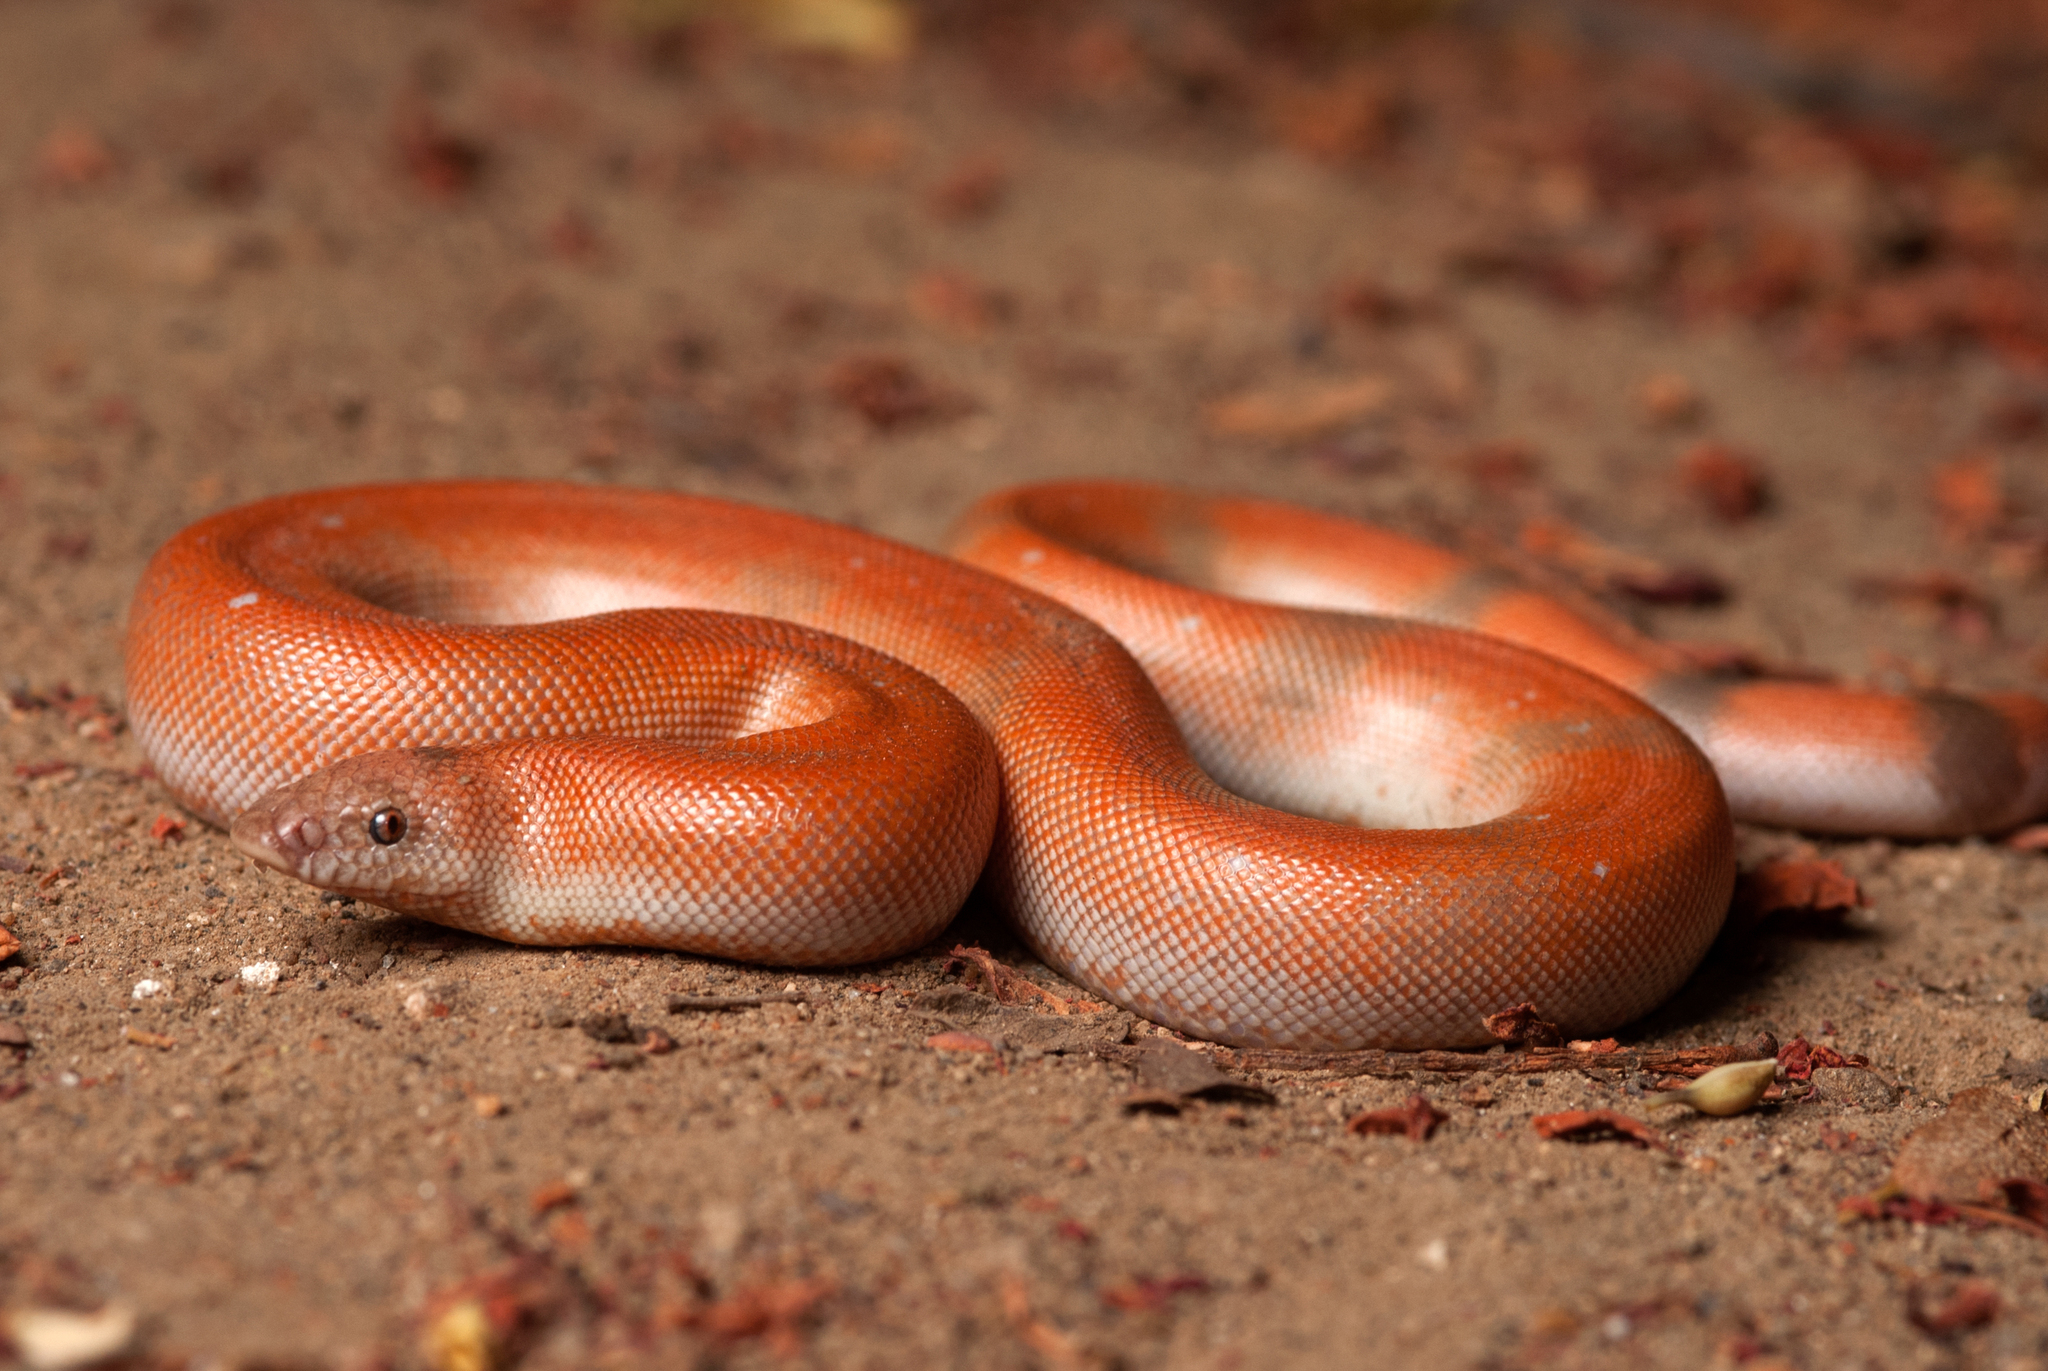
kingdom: Animalia
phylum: Chordata
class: Squamata
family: Boidae
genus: Eryx
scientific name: Eryx johnii
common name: Brown sand boa
